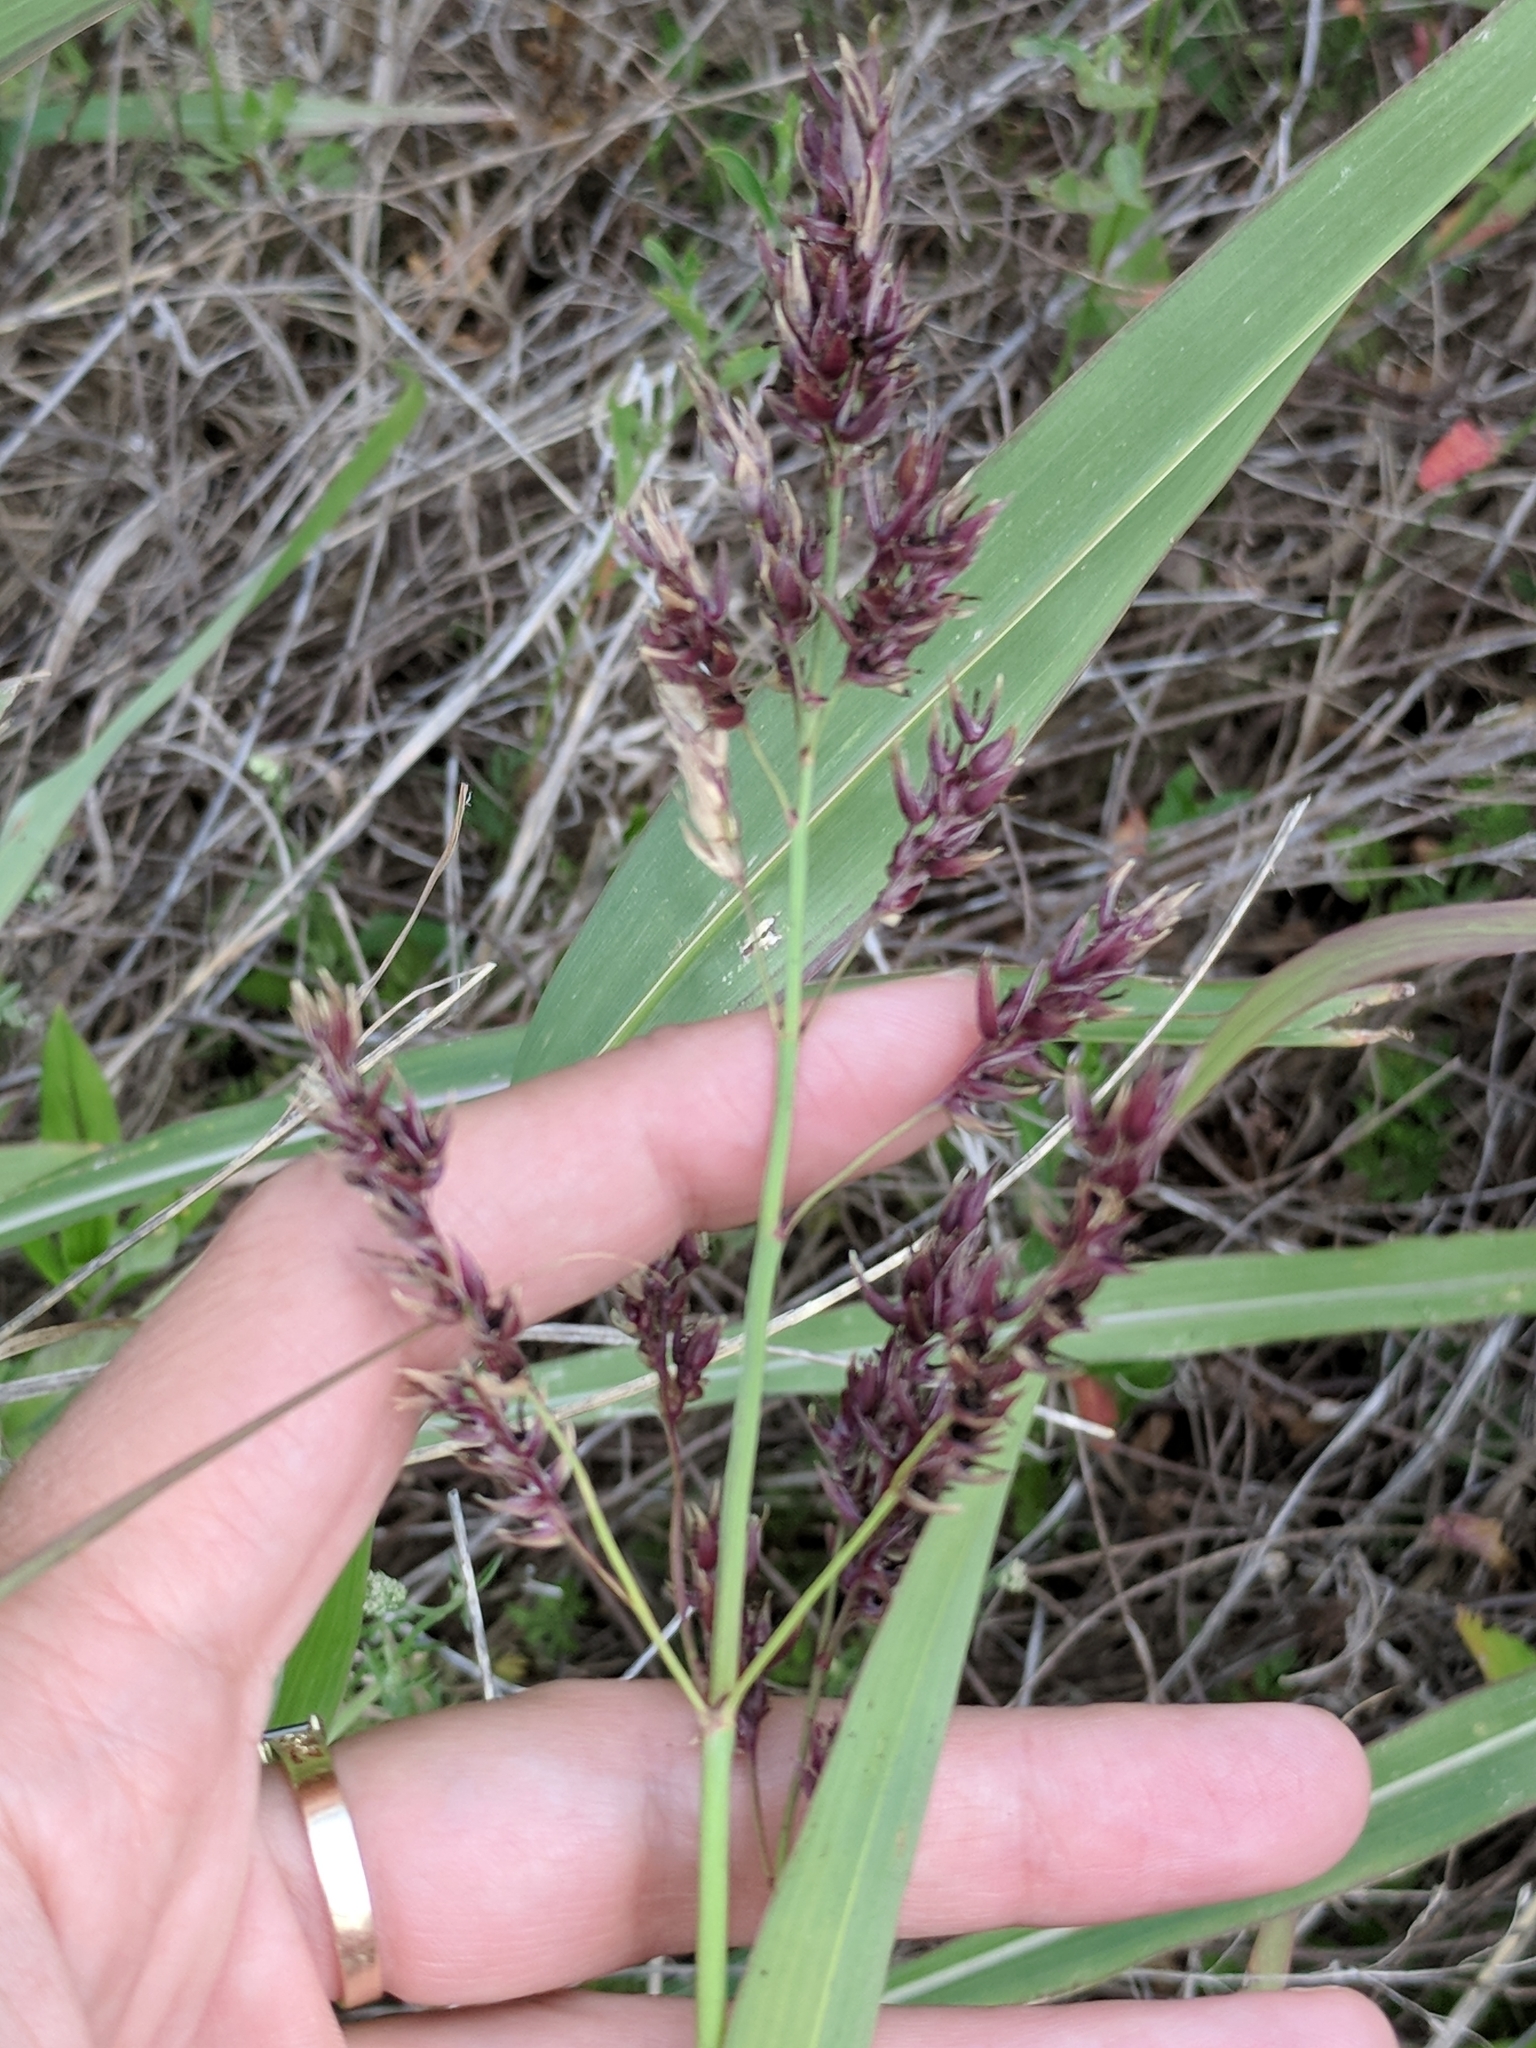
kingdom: Plantae
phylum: Tracheophyta
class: Liliopsida
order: Poales
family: Poaceae
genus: Sorghum
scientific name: Sorghum halepense
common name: Johnson-grass
